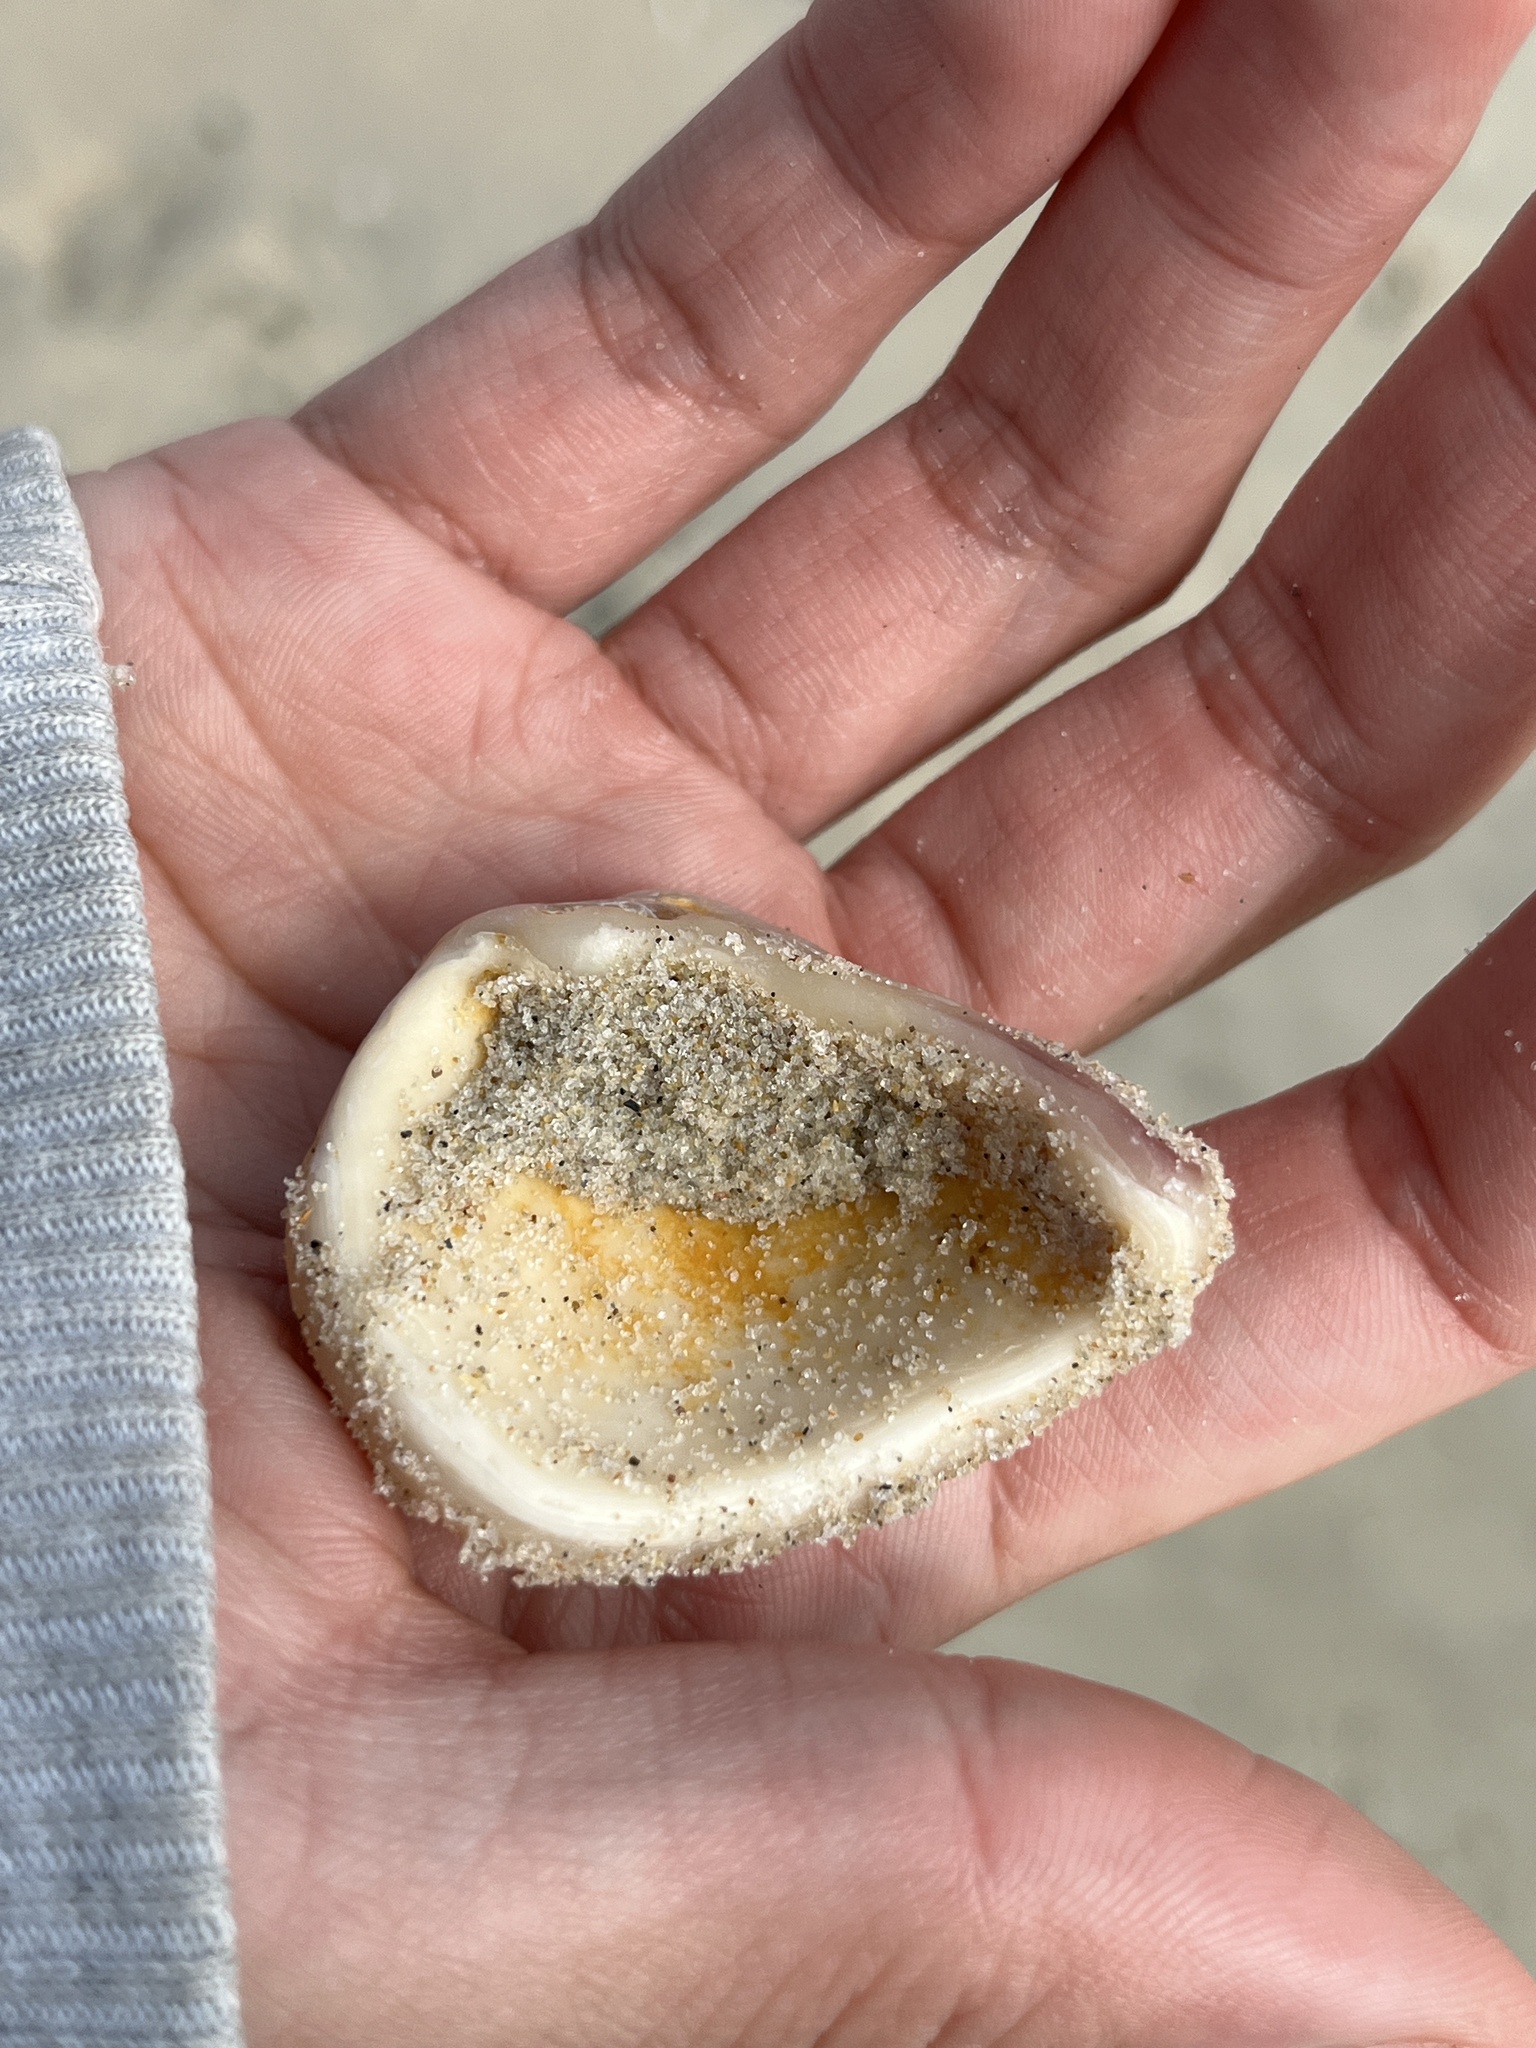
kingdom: Animalia
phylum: Mollusca
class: Bivalvia
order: Venerida
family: Veneridae
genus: Mercenaria
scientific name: Mercenaria mercenaria
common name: American hard-shelled clam
